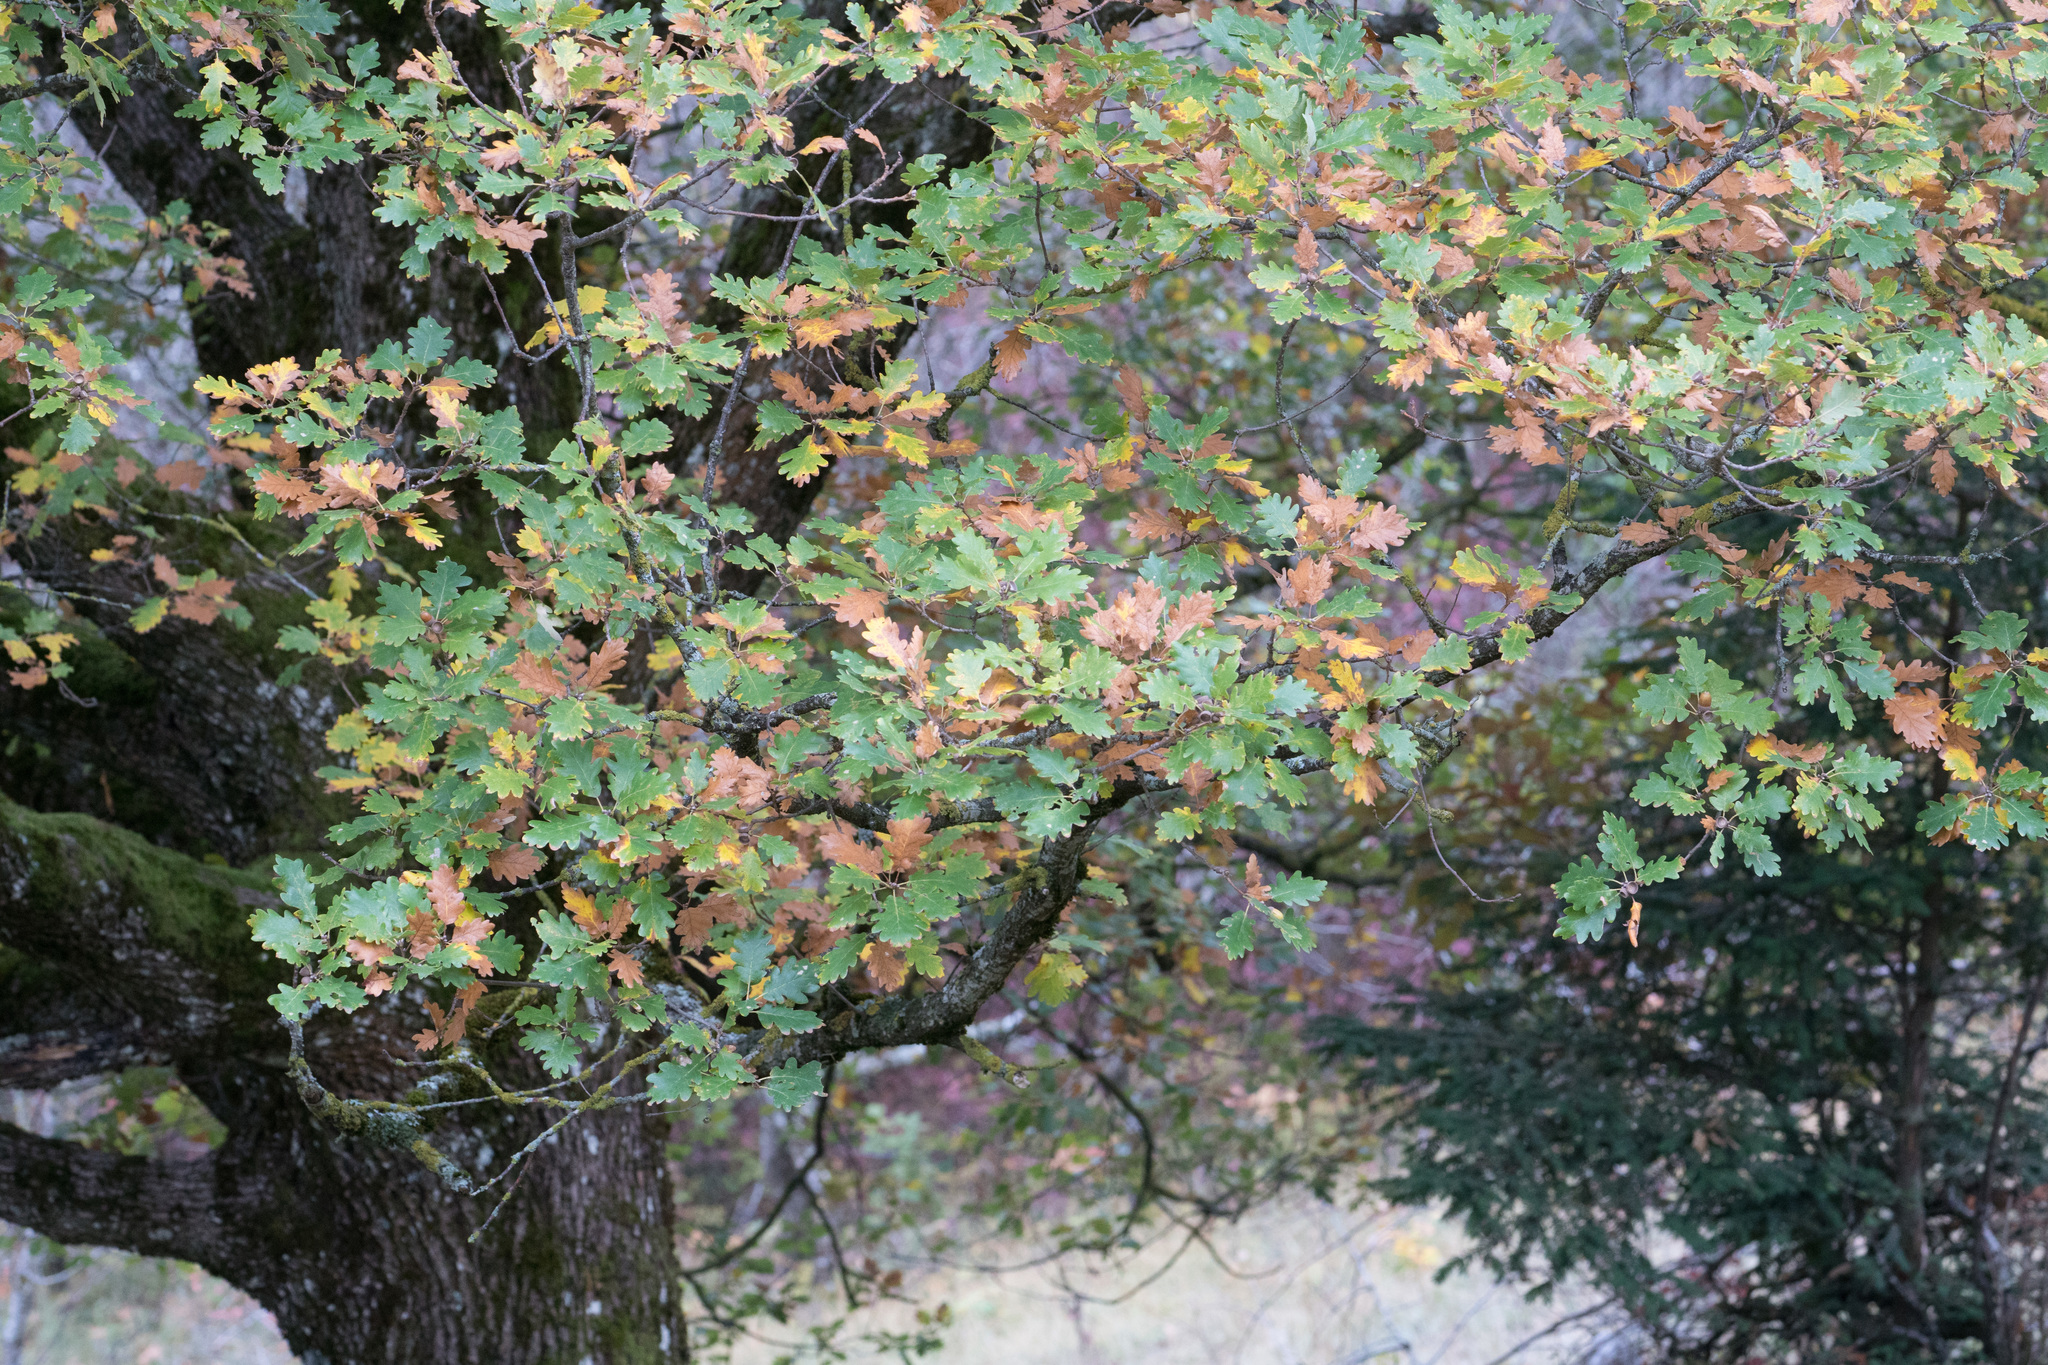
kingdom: Plantae
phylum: Tracheophyta
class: Magnoliopsida
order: Fagales
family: Fagaceae
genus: Quercus
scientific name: Quercus petraea
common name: Sessile oak
